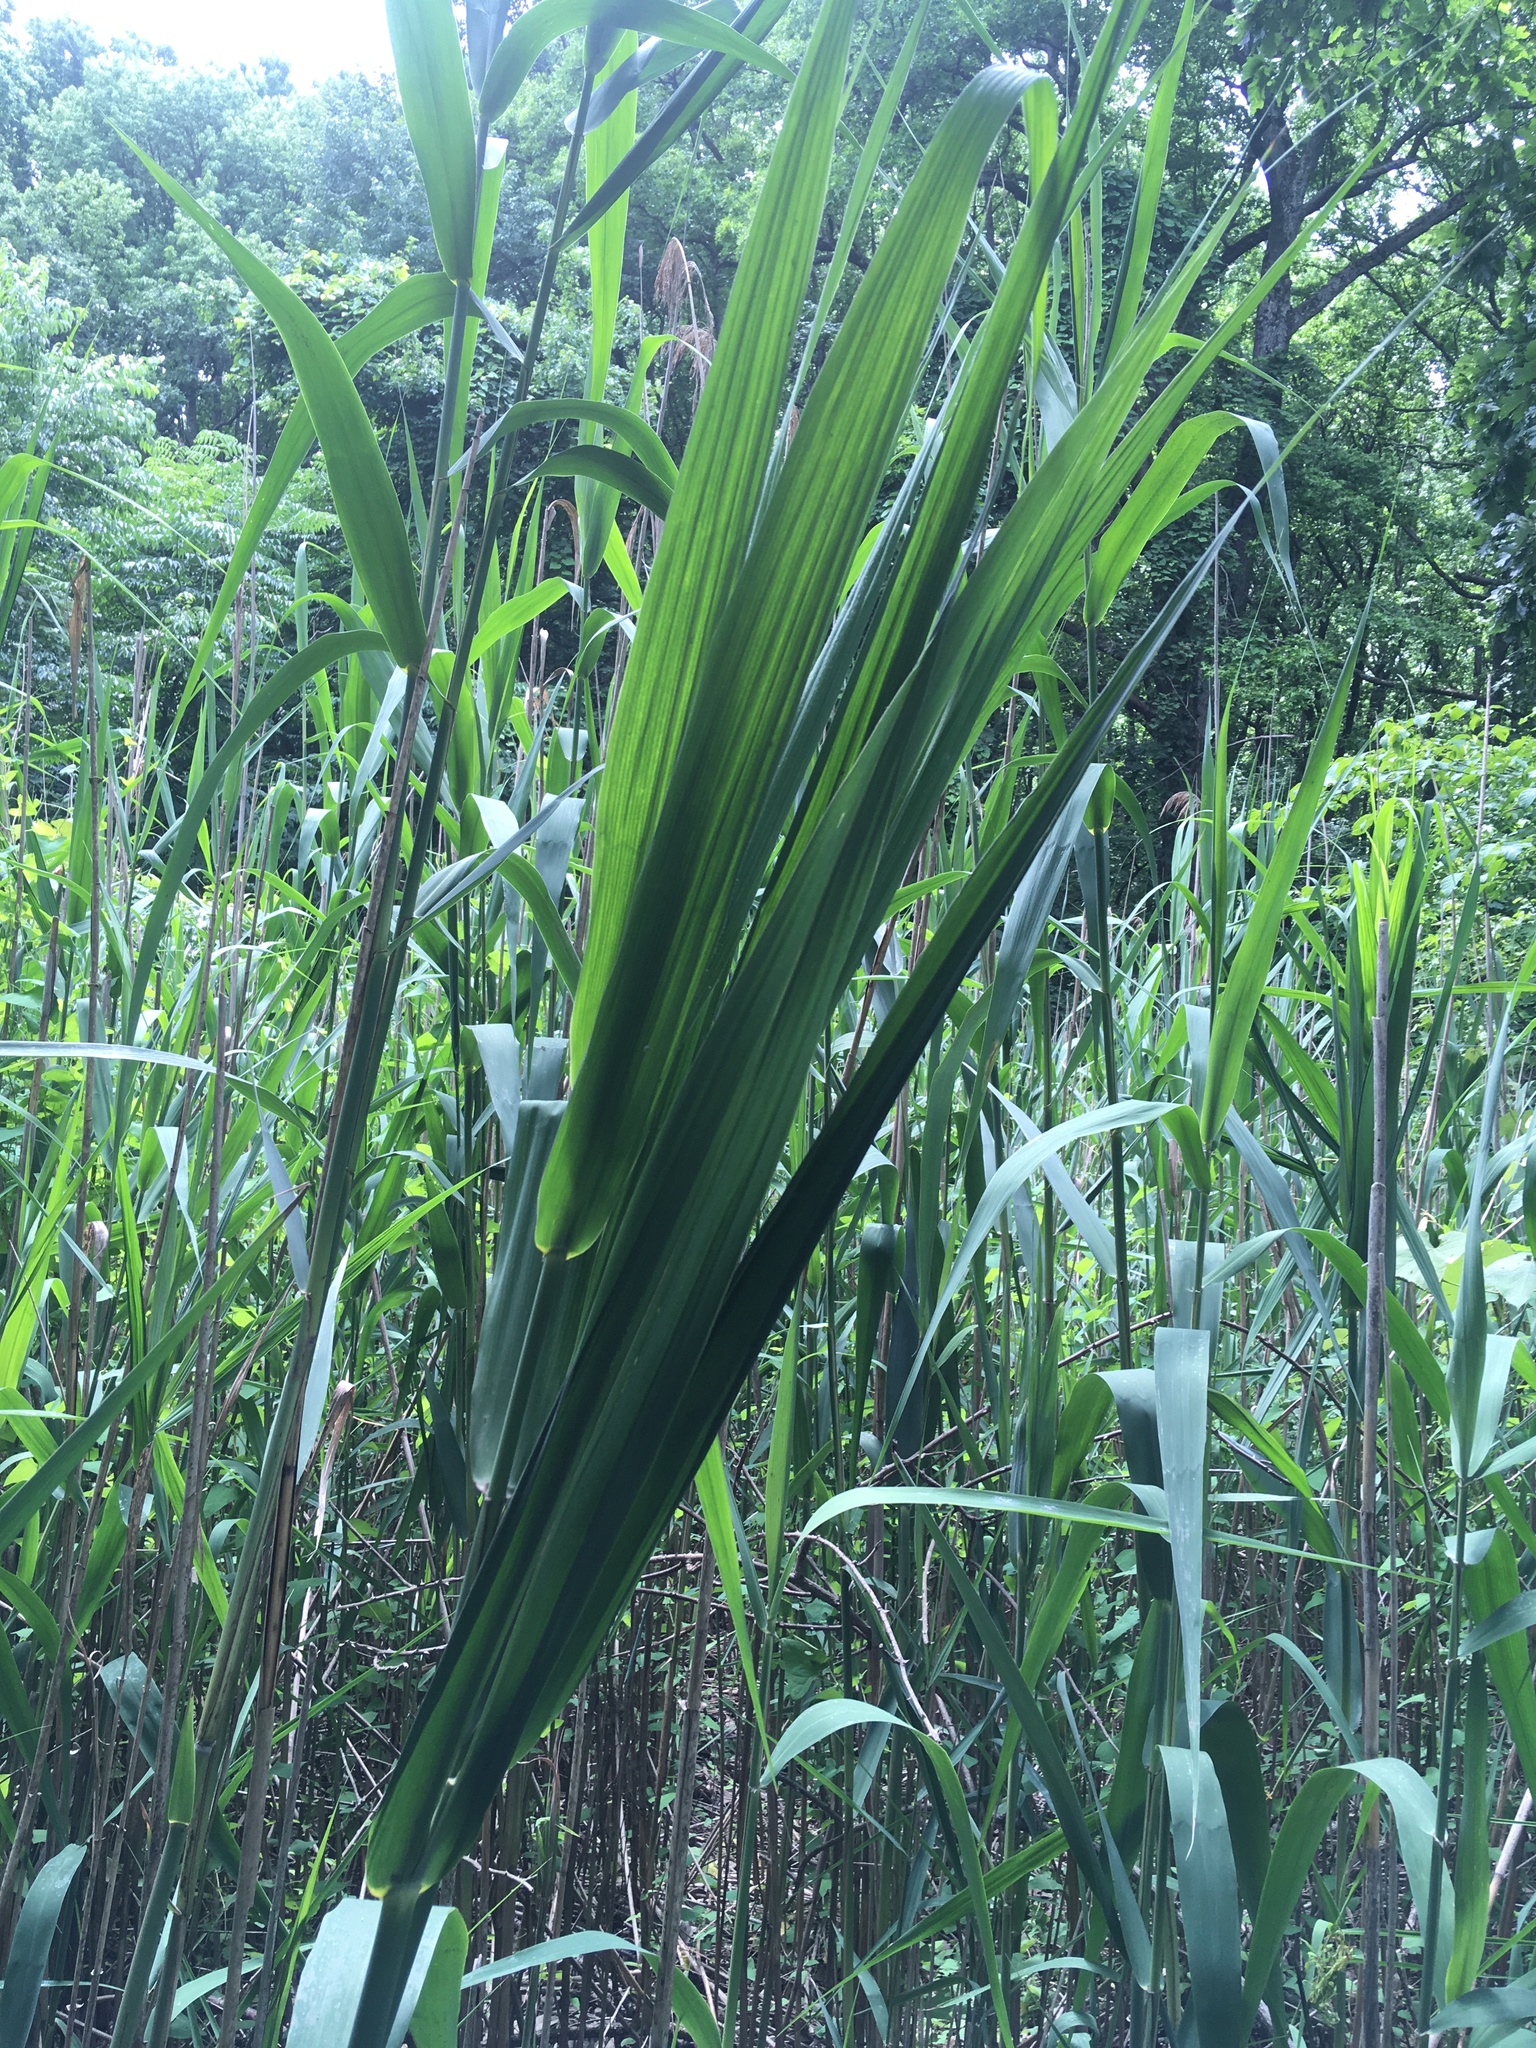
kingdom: Plantae
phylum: Tracheophyta
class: Liliopsida
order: Poales
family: Poaceae
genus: Phragmites
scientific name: Phragmites australis
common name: Common reed
